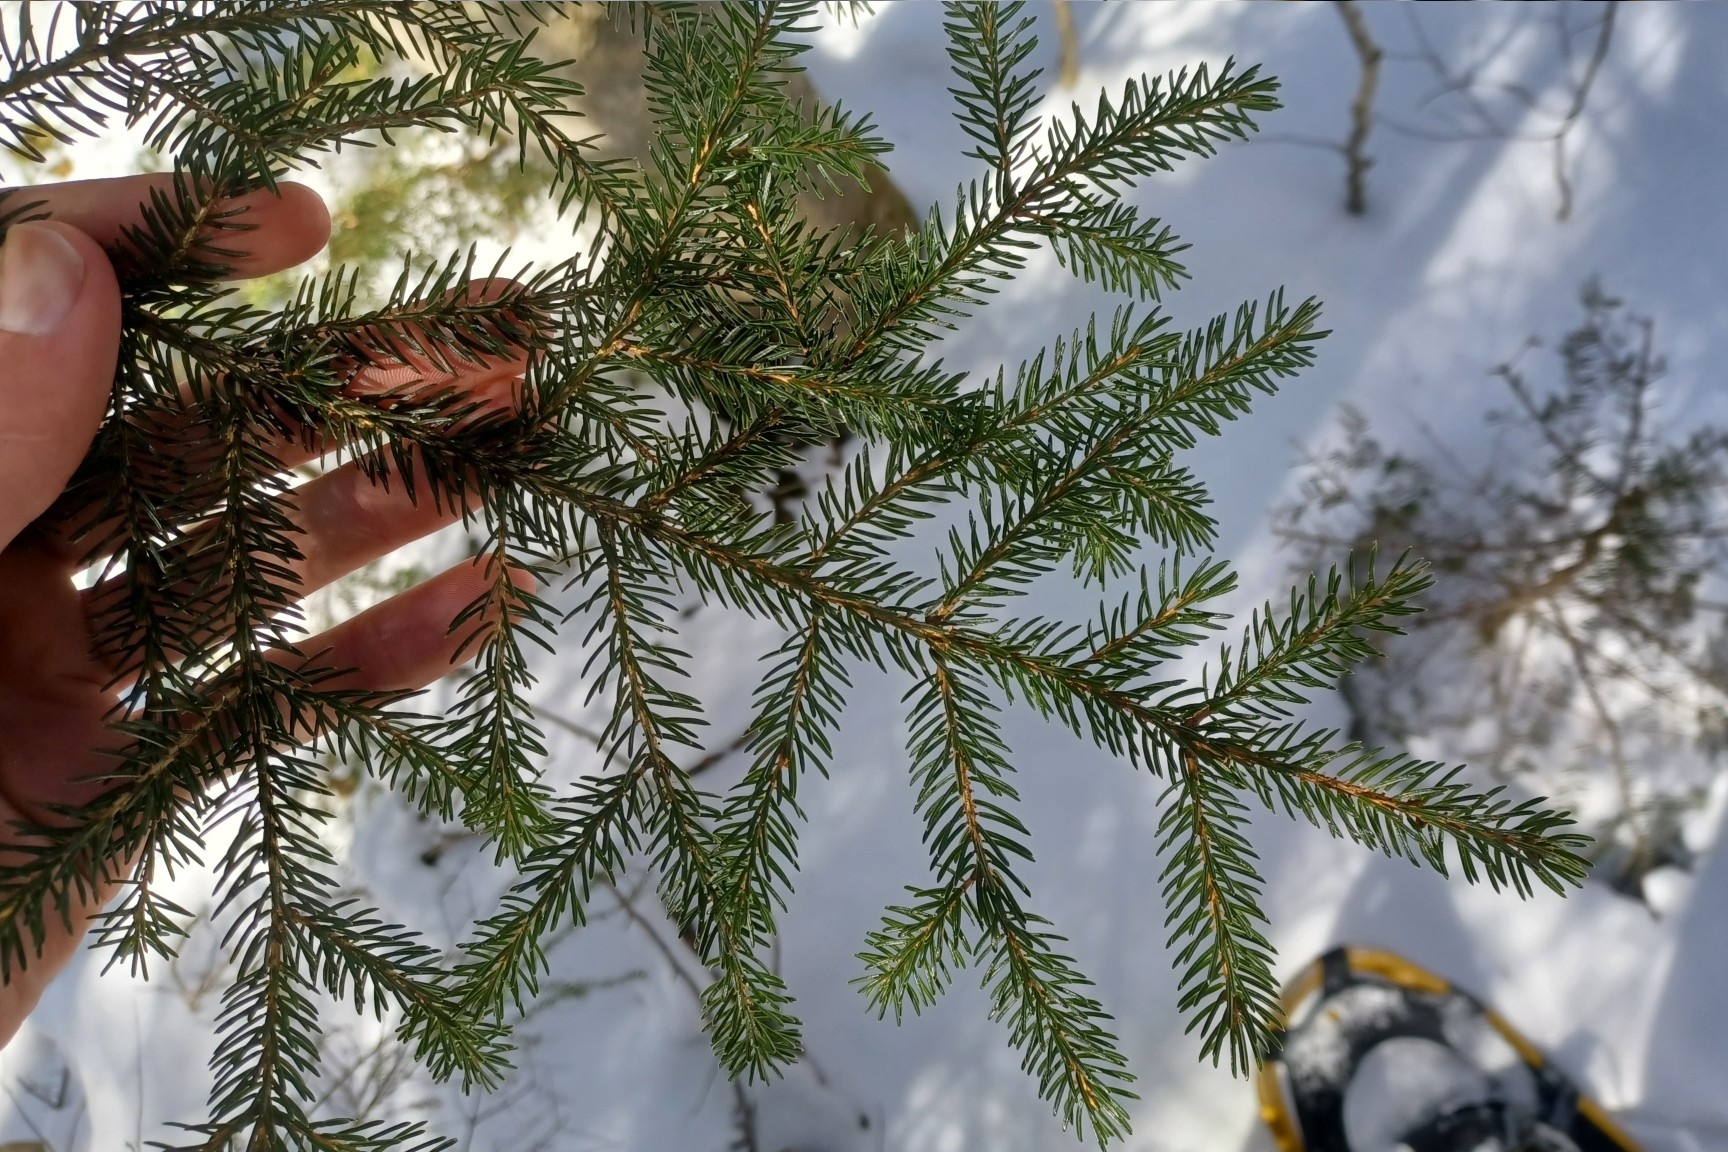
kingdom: Plantae
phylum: Tracheophyta
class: Pinopsida
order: Pinales
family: Pinaceae
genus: Picea
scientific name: Picea rubens
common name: Red spruce
